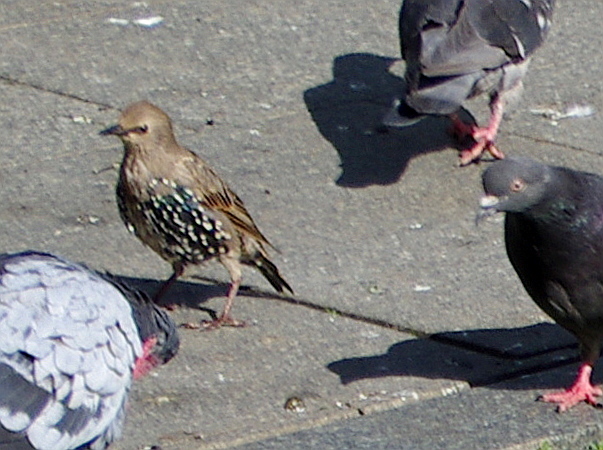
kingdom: Animalia
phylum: Chordata
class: Aves
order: Passeriformes
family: Sturnidae
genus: Sturnus
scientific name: Sturnus vulgaris
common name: Common starling
